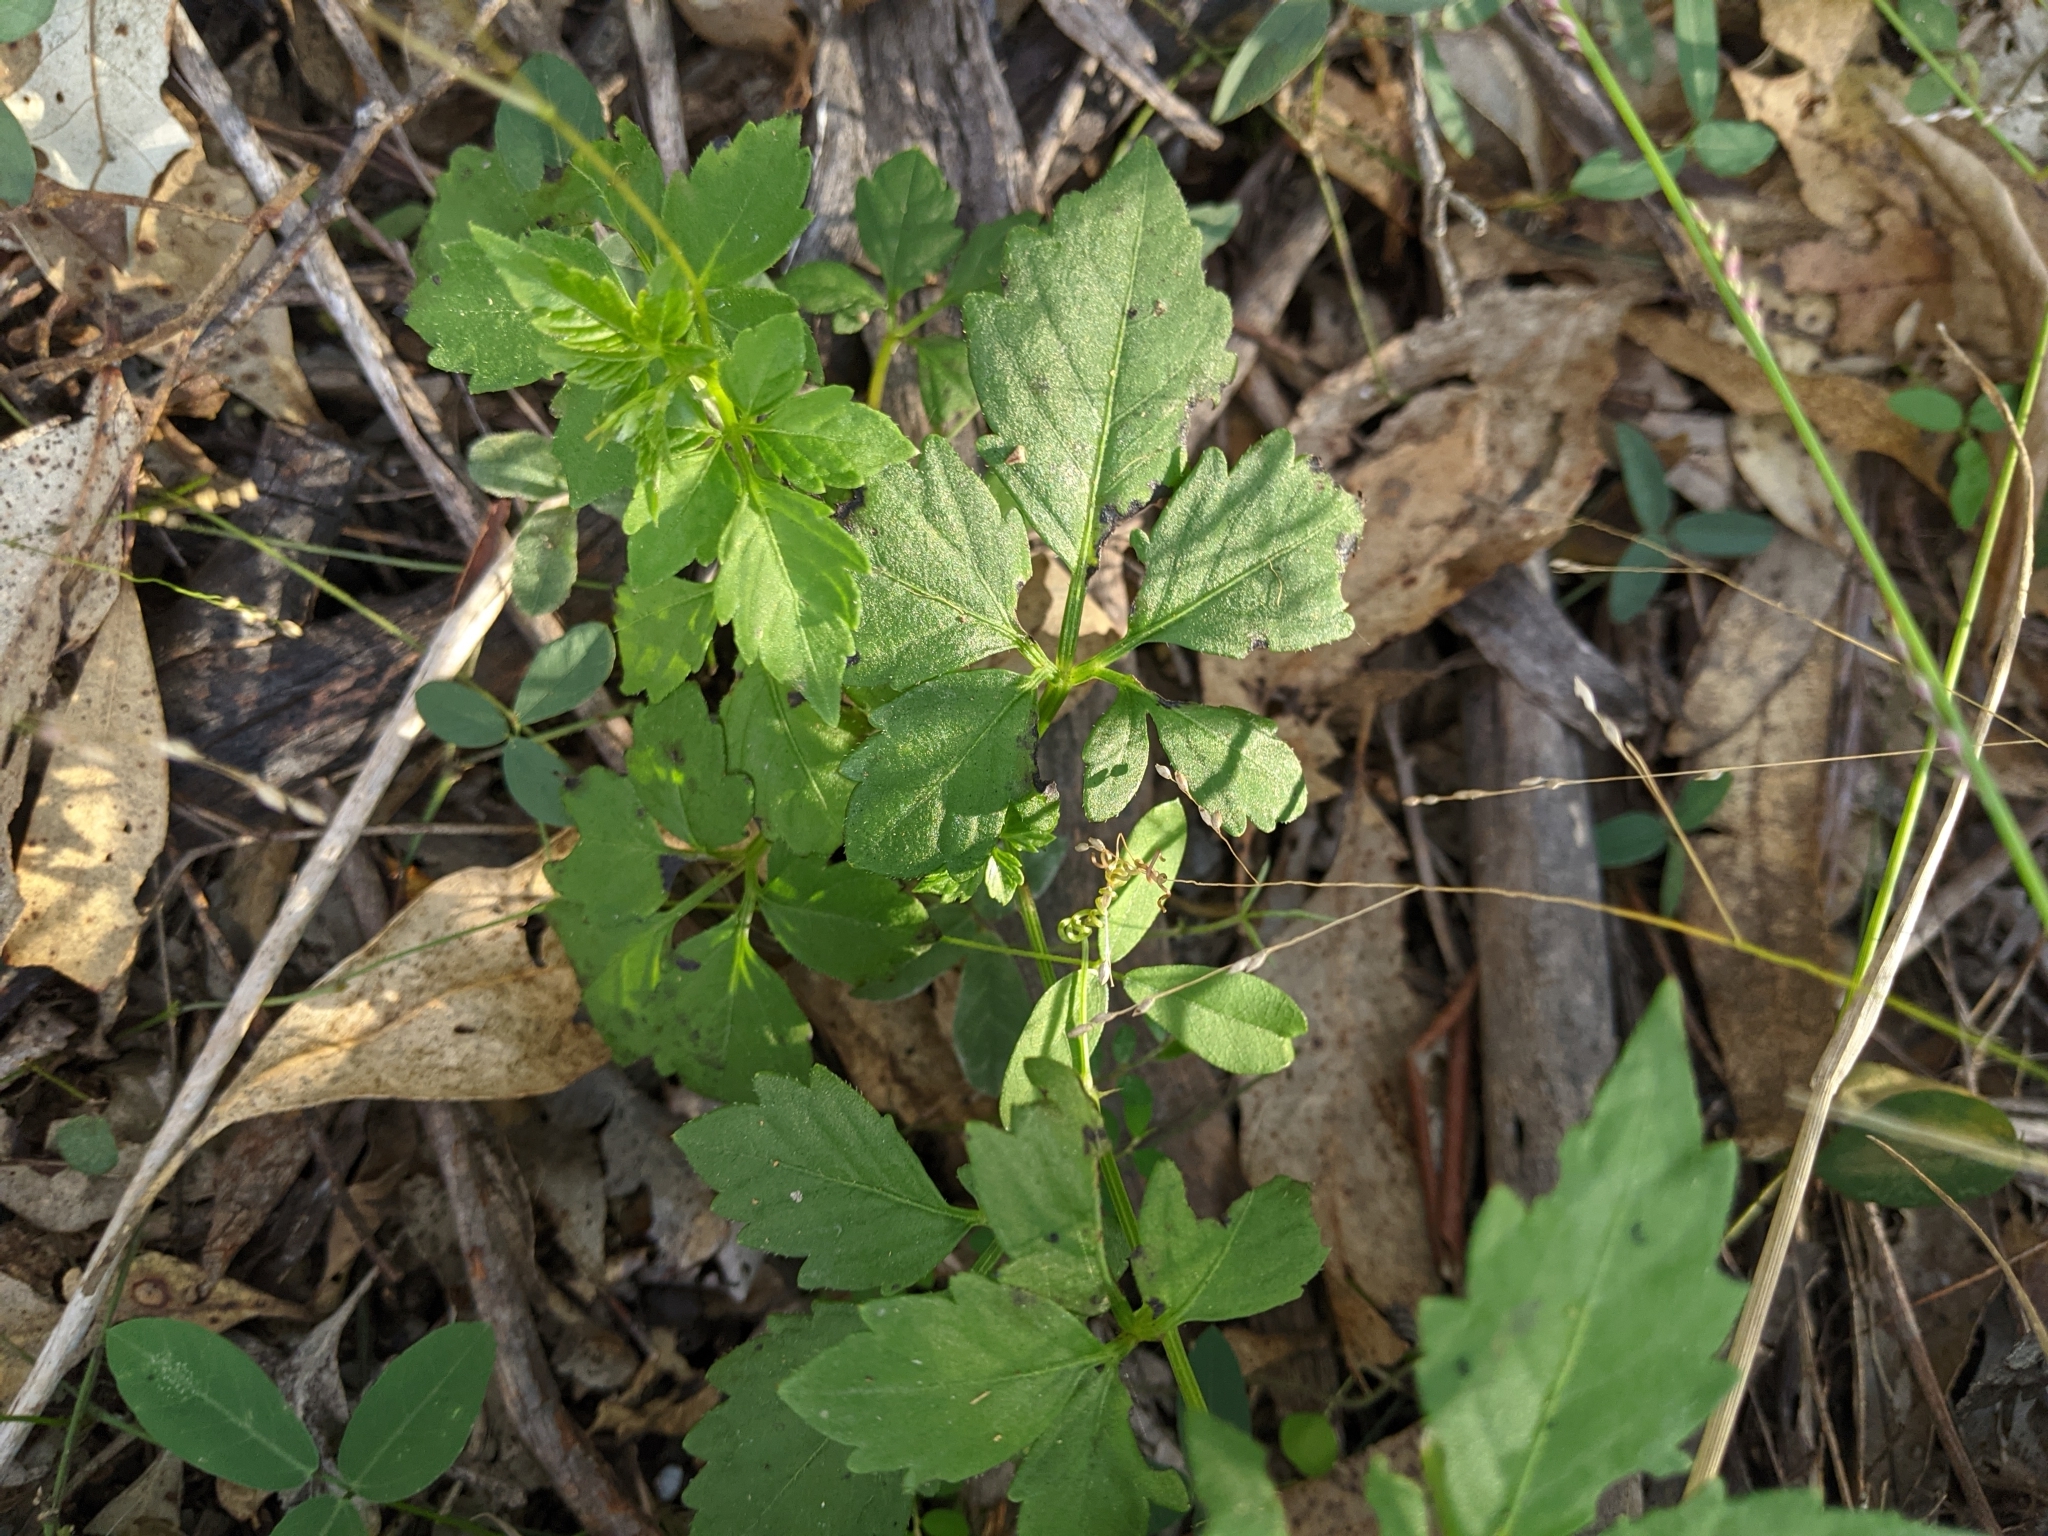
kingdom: Plantae
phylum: Tracheophyta
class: Magnoliopsida
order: Vitales
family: Vitaceae
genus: Causonis
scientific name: Causonis clematidea
